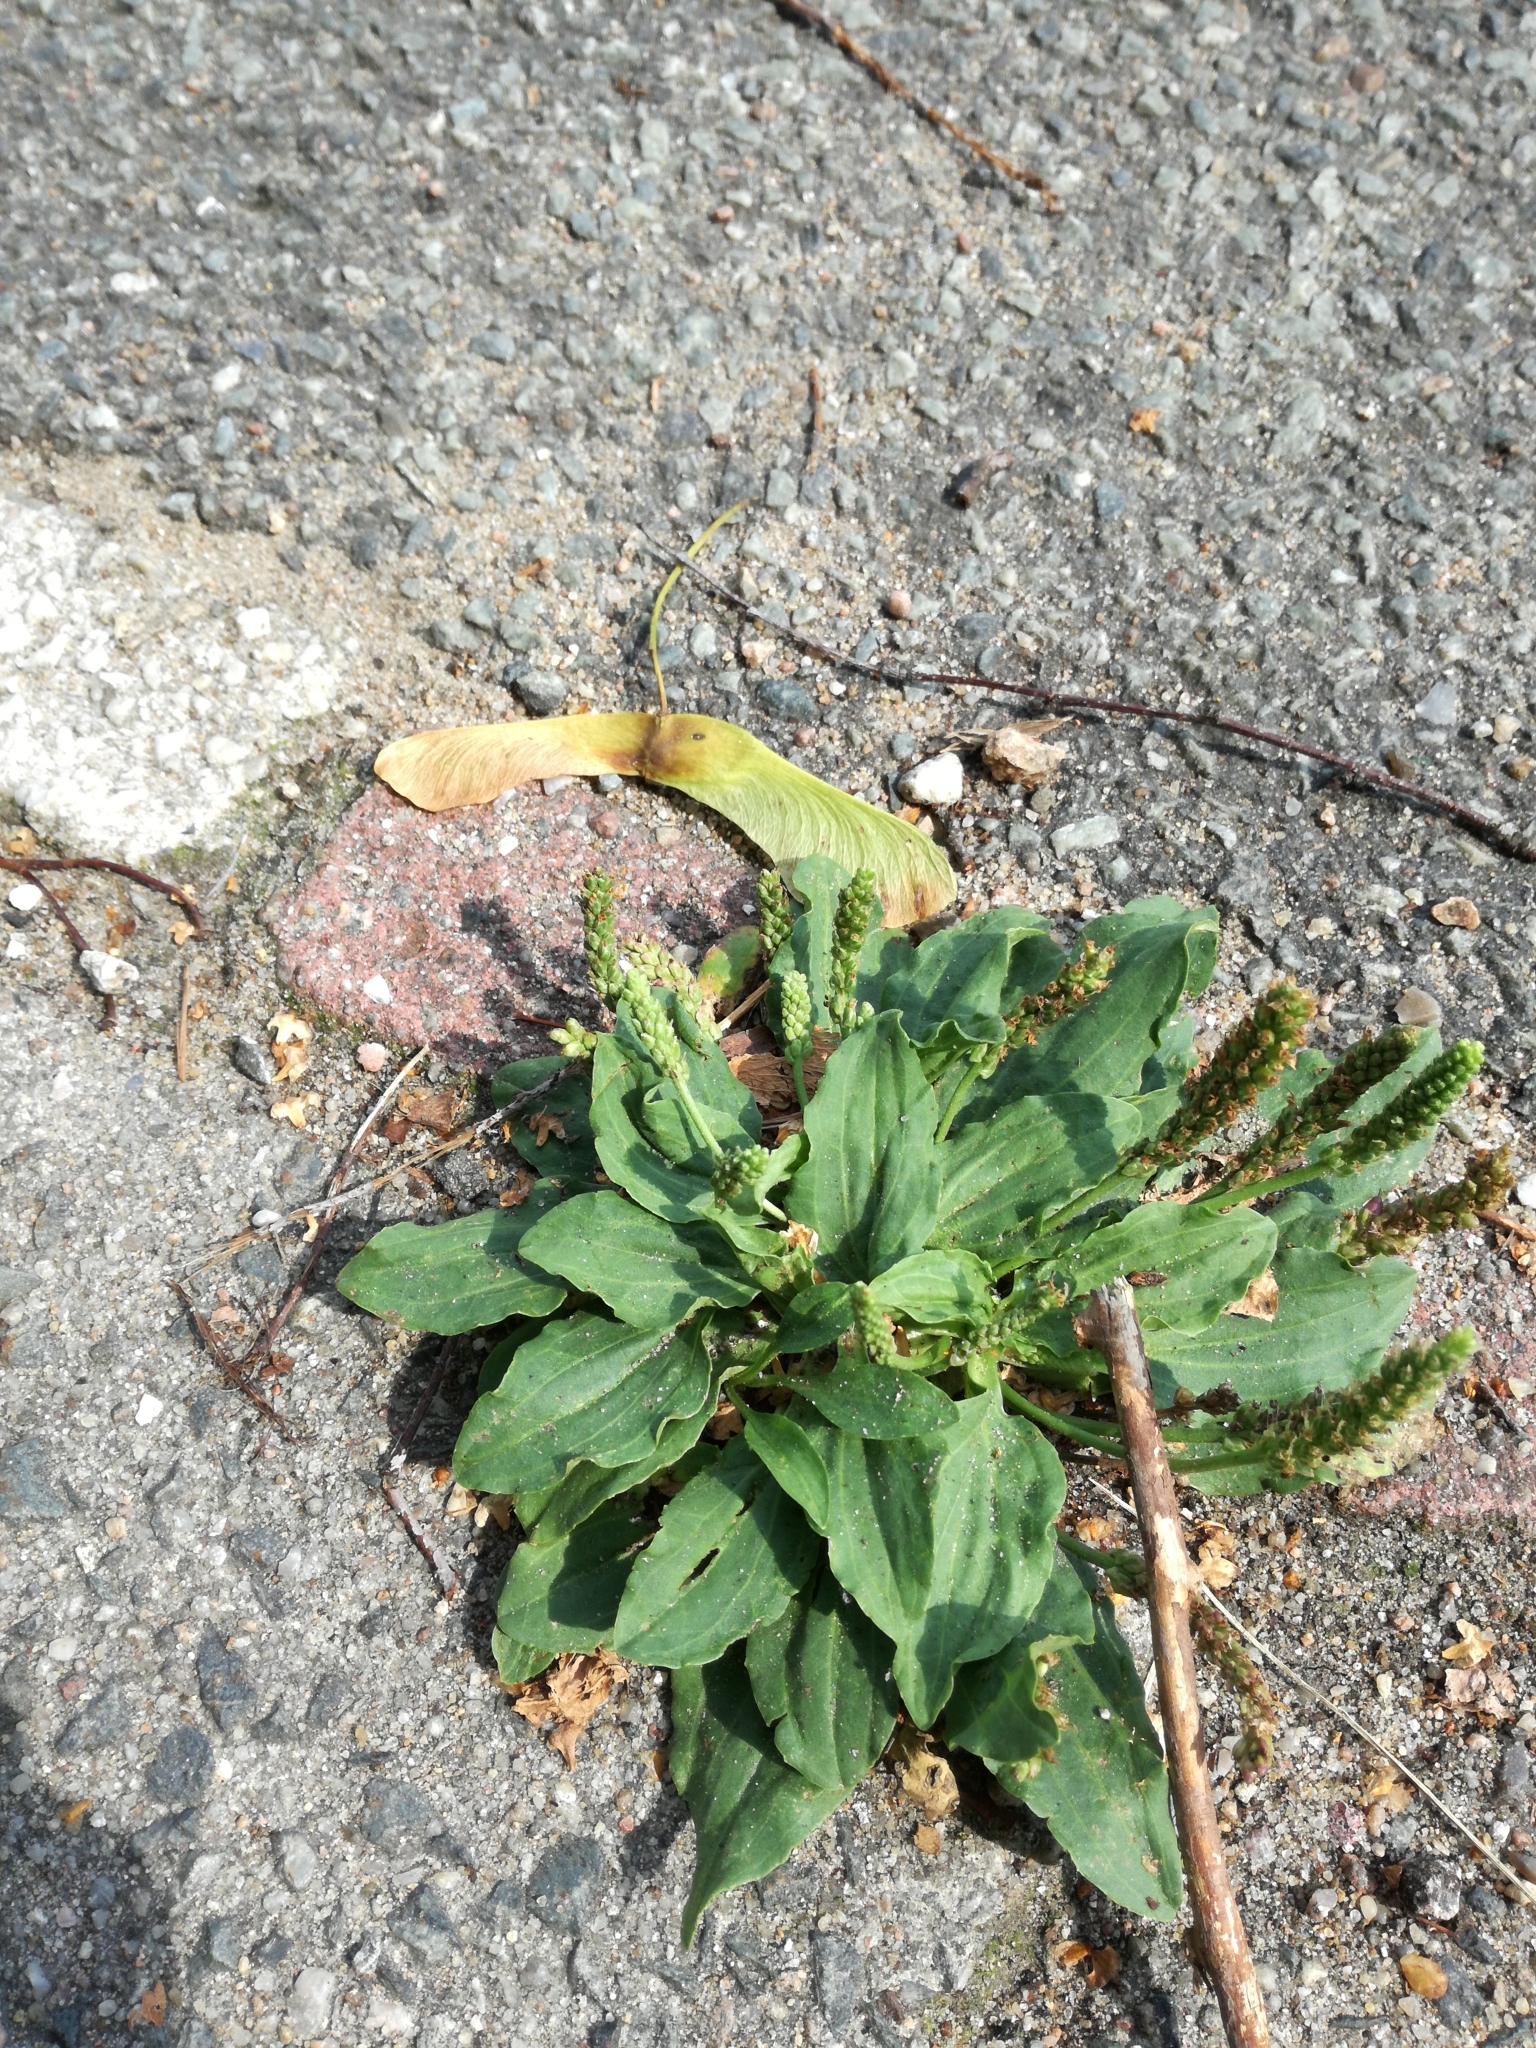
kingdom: Plantae
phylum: Tracheophyta
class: Magnoliopsida
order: Lamiales
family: Plantaginaceae
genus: Plantago
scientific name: Plantago major
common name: Common plantain
